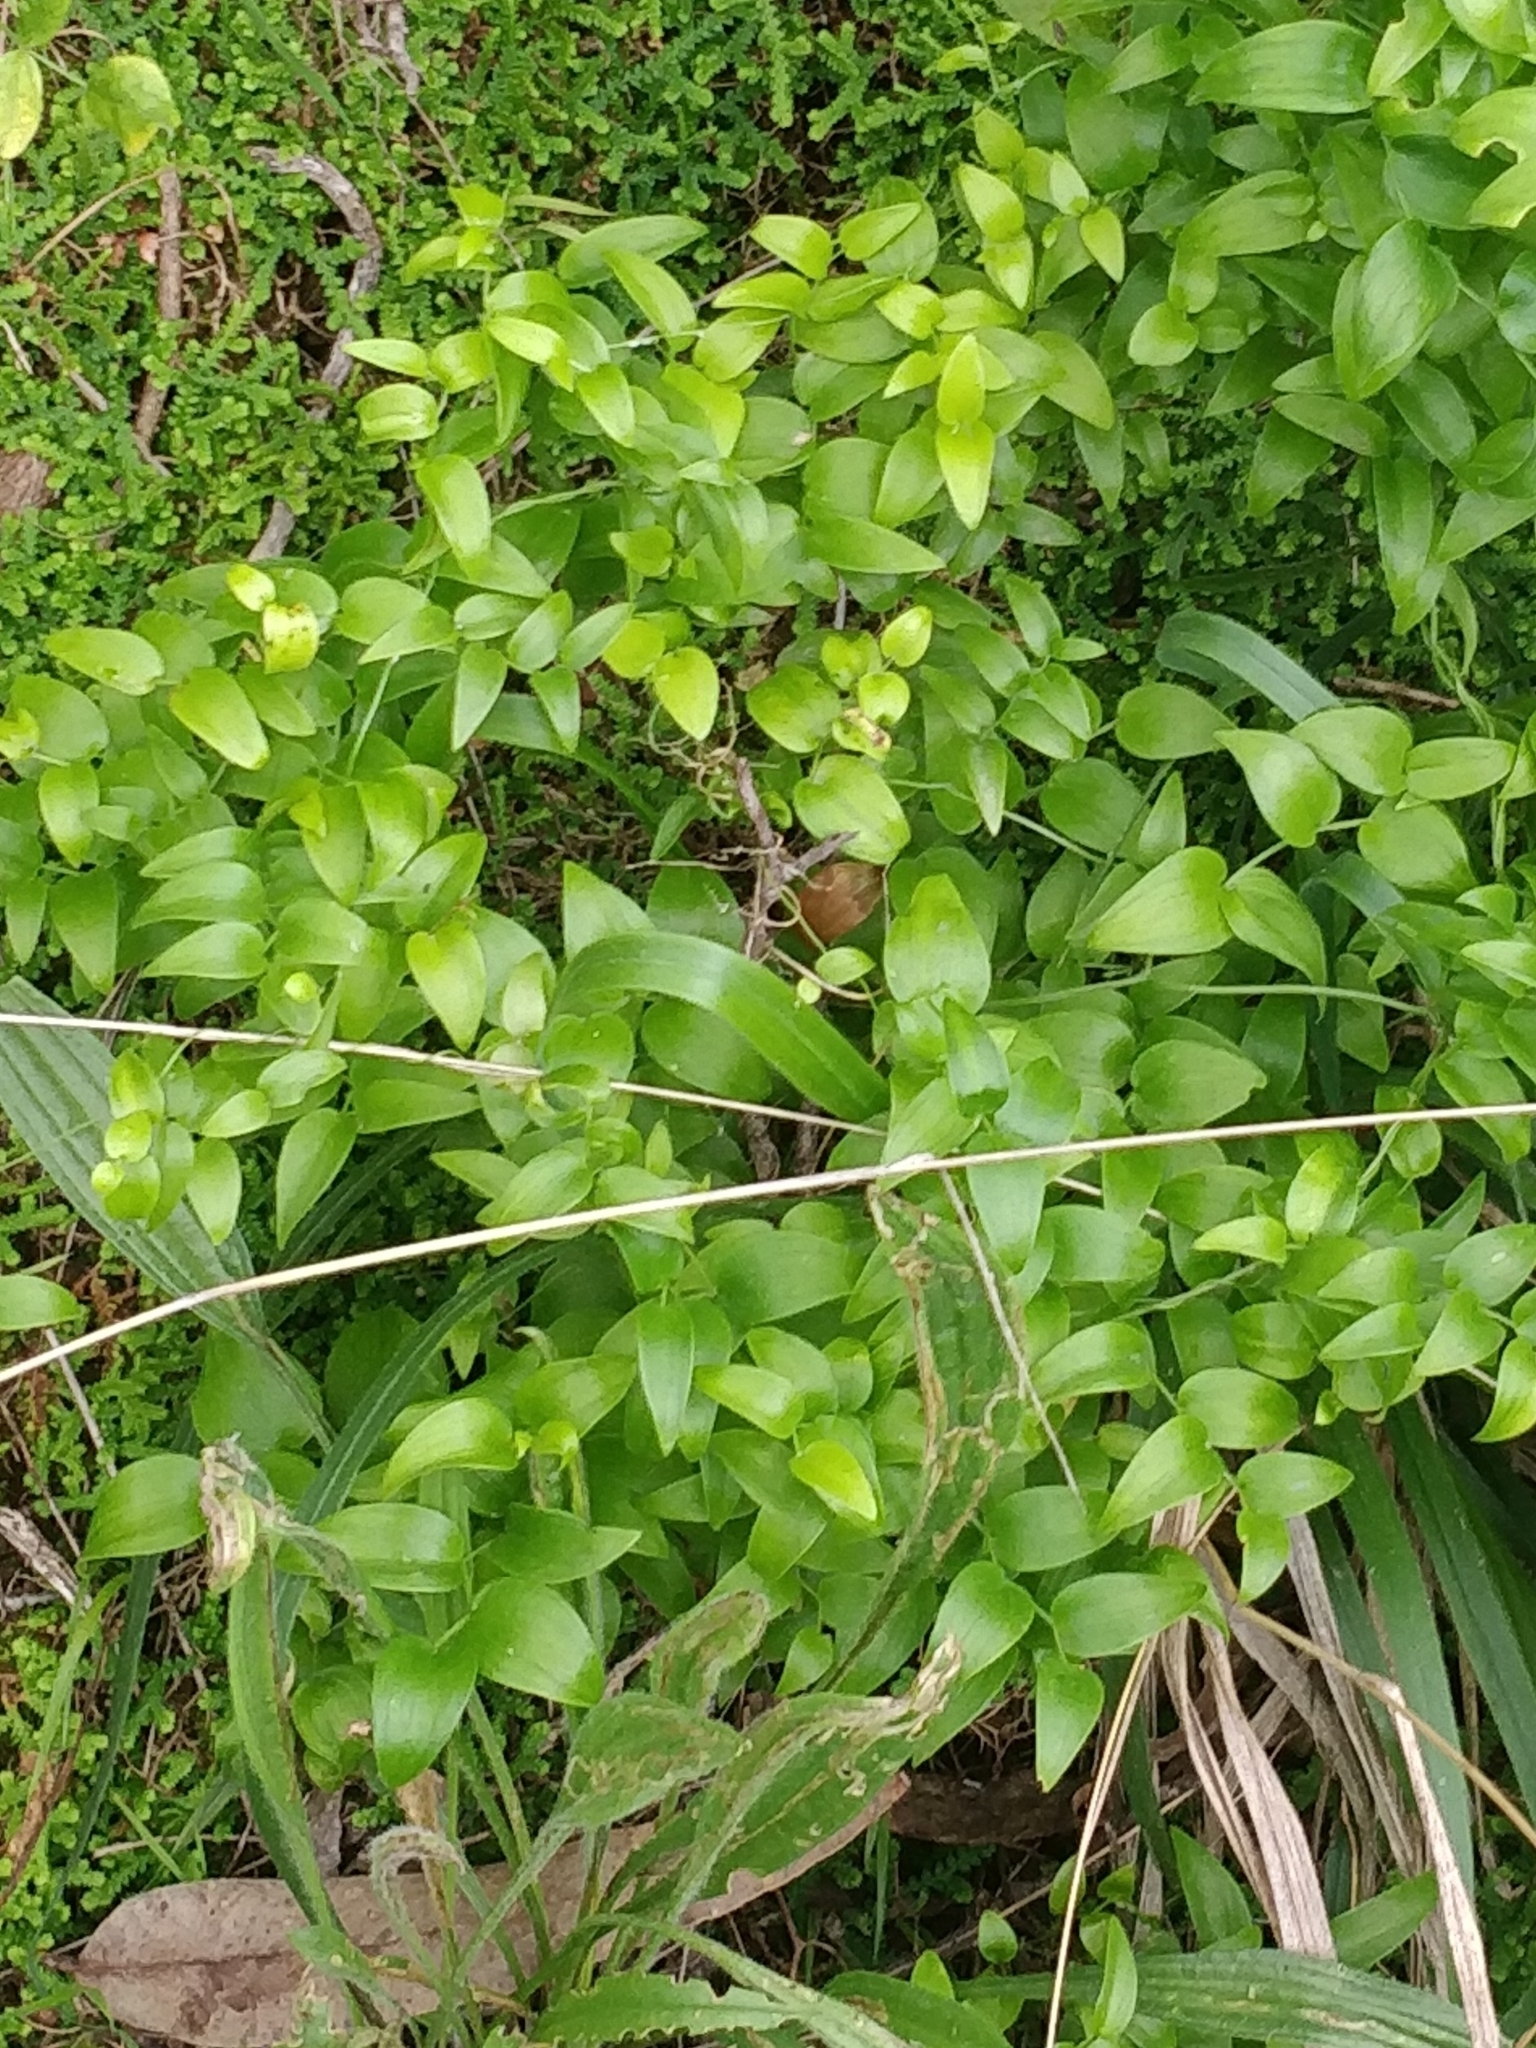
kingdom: Plantae
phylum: Tracheophyta
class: Liliopsida
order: Asparagales
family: Asparagaceae
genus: Asparagus
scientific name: Asparagus asparagoides
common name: African asparagus fern
